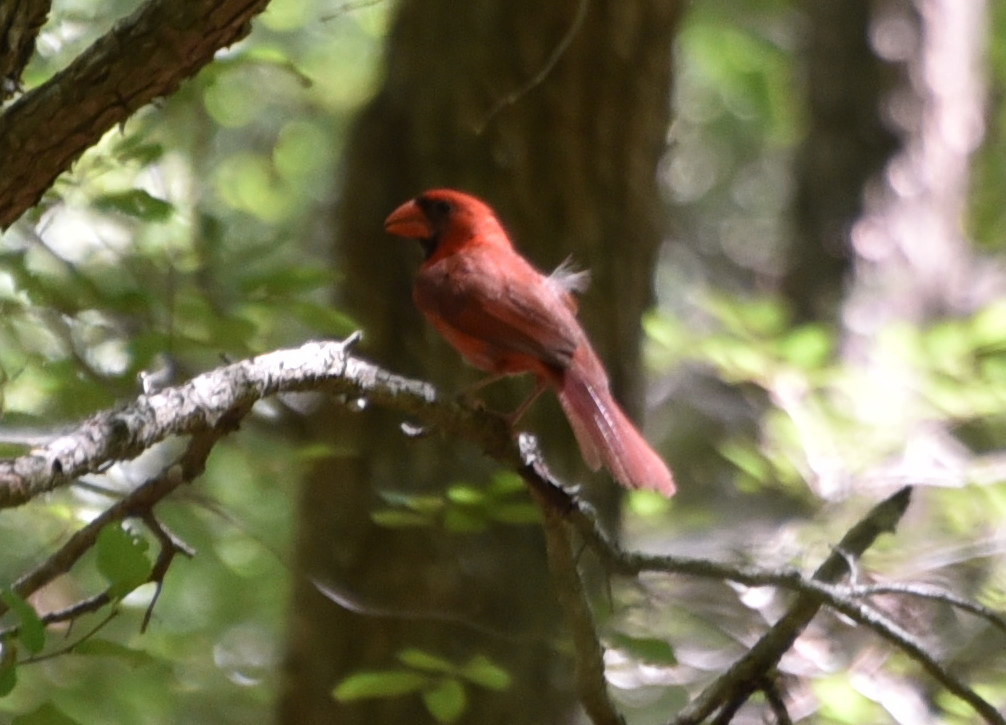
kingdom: Animalia
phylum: Chordata
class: Aves
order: Passeriformes
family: Cardinalidae
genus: Cardinalis
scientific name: Cardinalis cardinalis
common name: Northern cardinal
